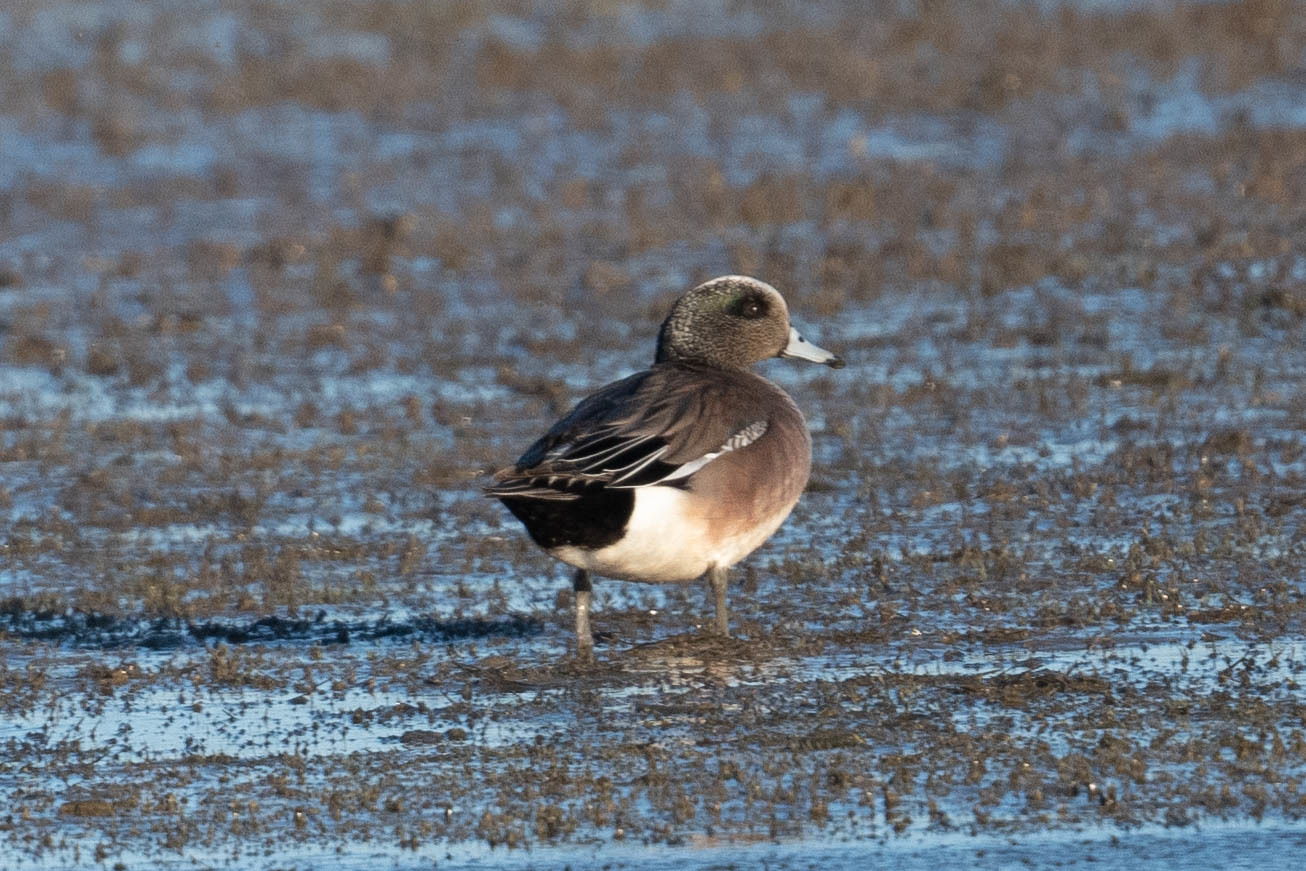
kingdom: Animalia
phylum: Chordata
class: Aves
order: Anseriformes
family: Anatidae
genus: Mareca
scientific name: Mareca americana
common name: American wigeon
